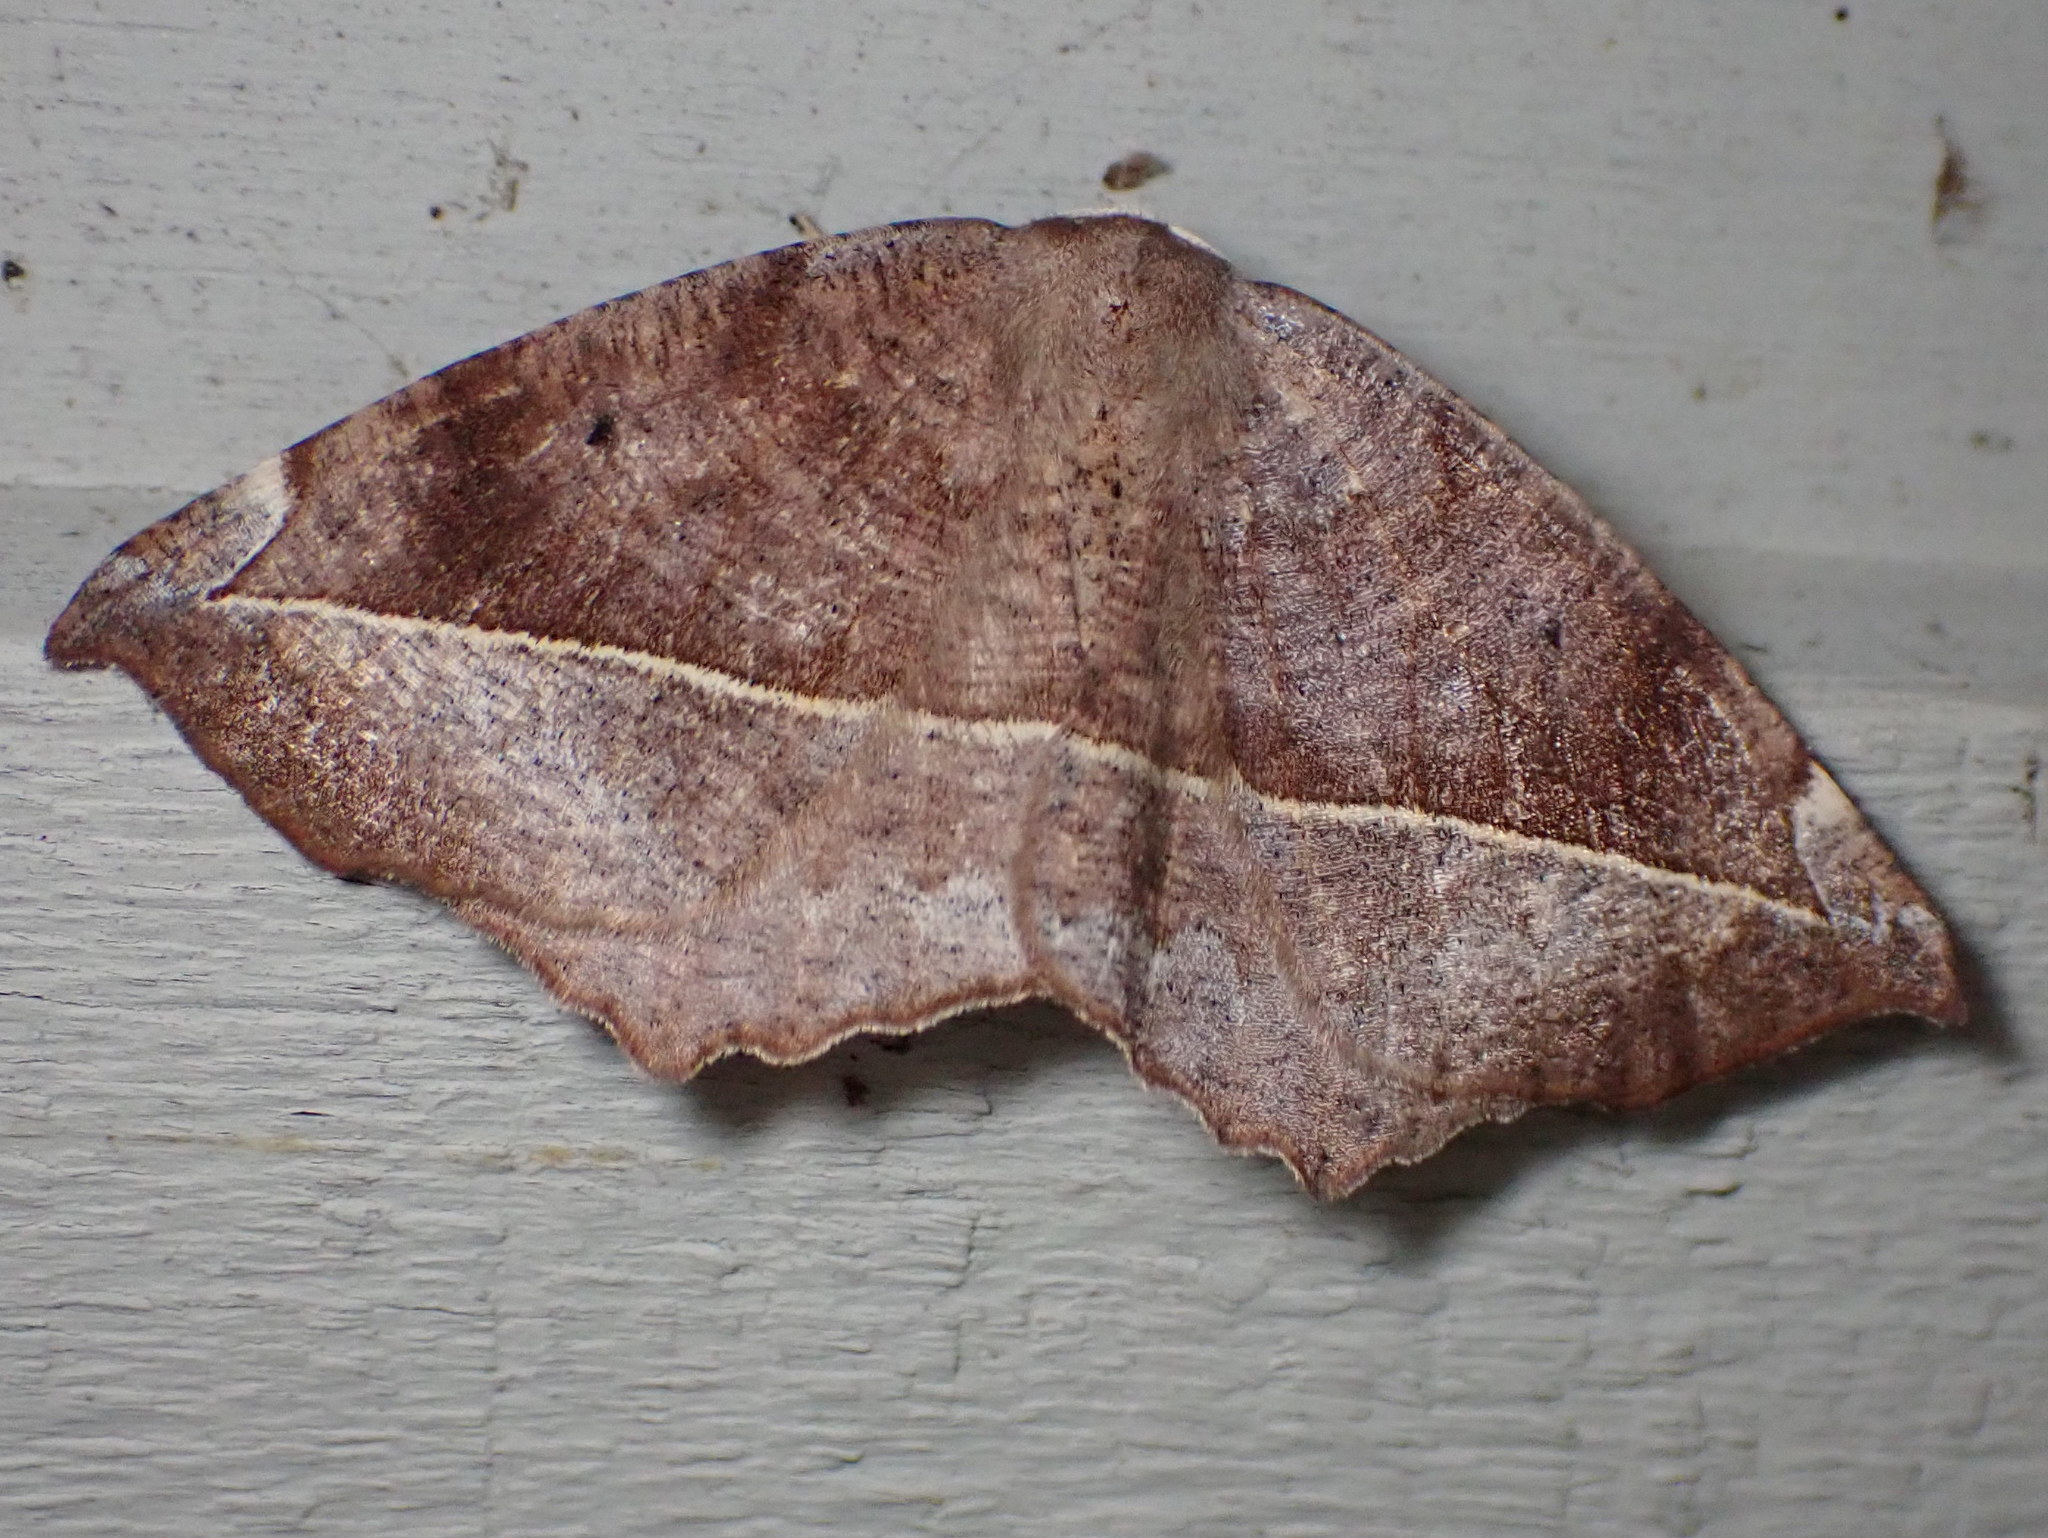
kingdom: Animalia
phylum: Arthropoda
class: Insecta
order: Lepidoptera
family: Geometridae
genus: Eutrapela
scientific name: Eutrapela clemataria
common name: Curved-toothed geometer
